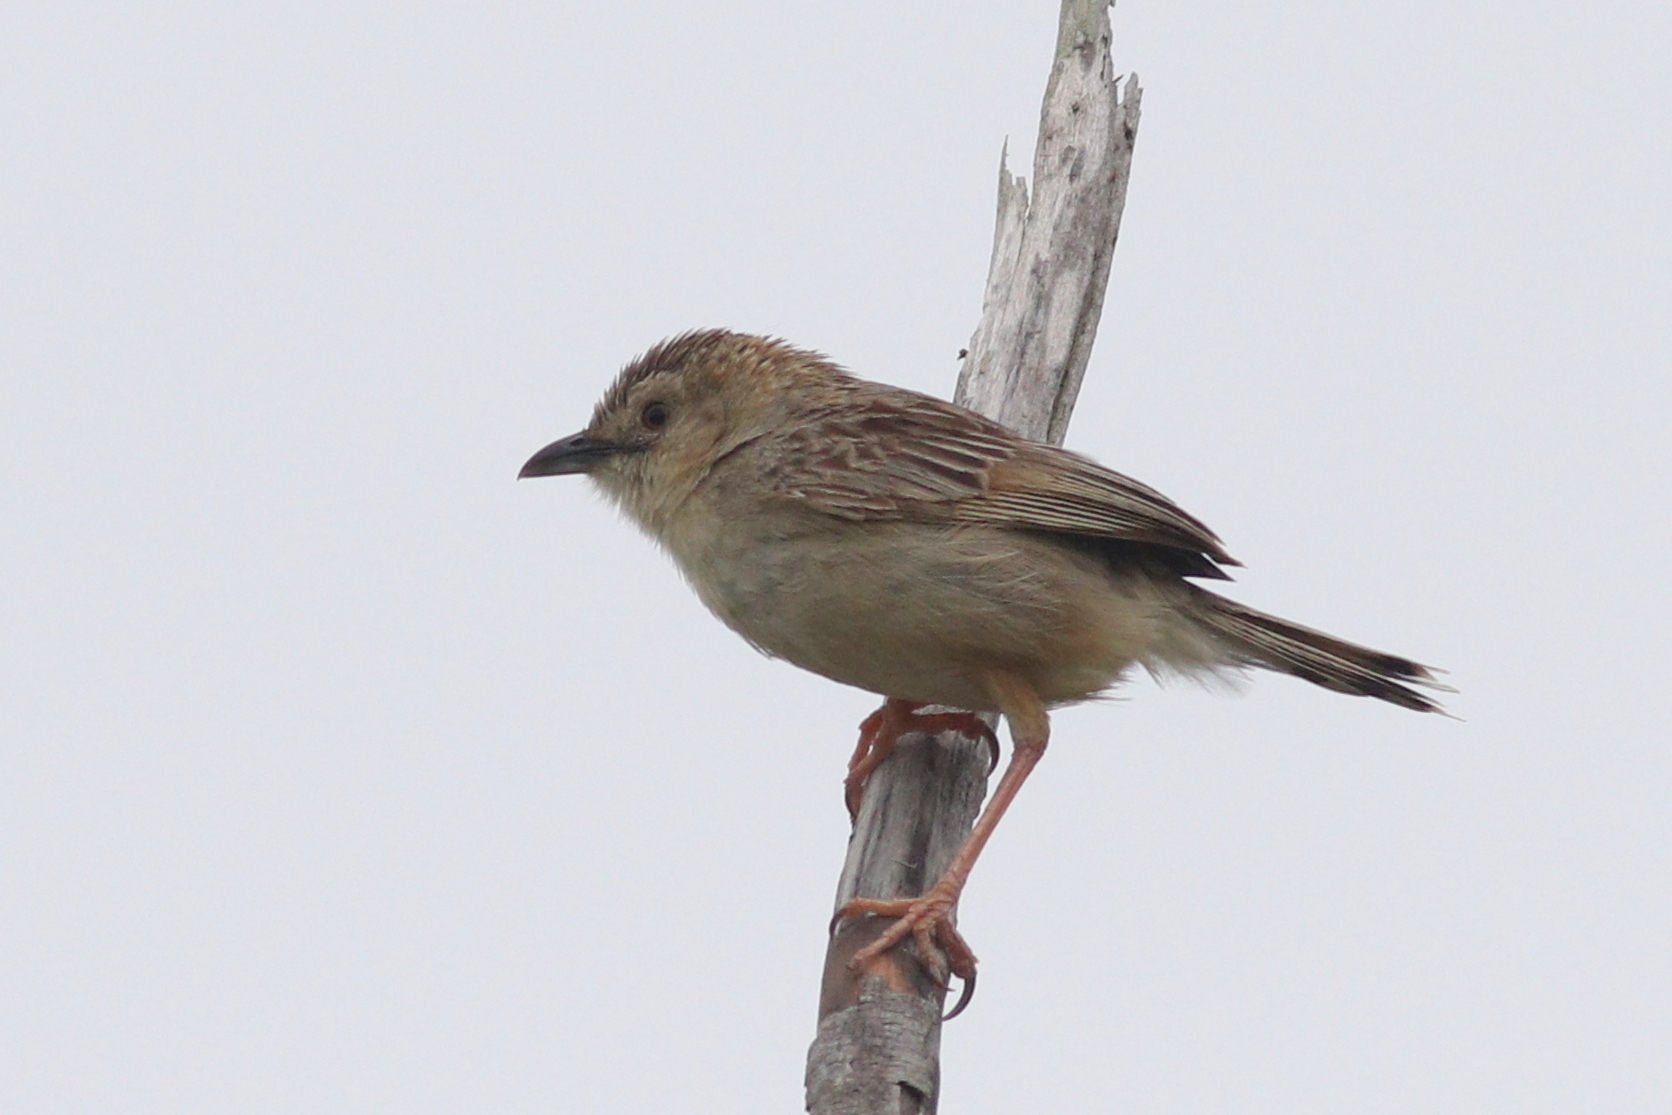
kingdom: Animalia
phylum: Chordata
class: Aves
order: Passeriformes
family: Cisticolidae
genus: Cisticola
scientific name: Cisticola natalensis
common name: Croaking cisticola
